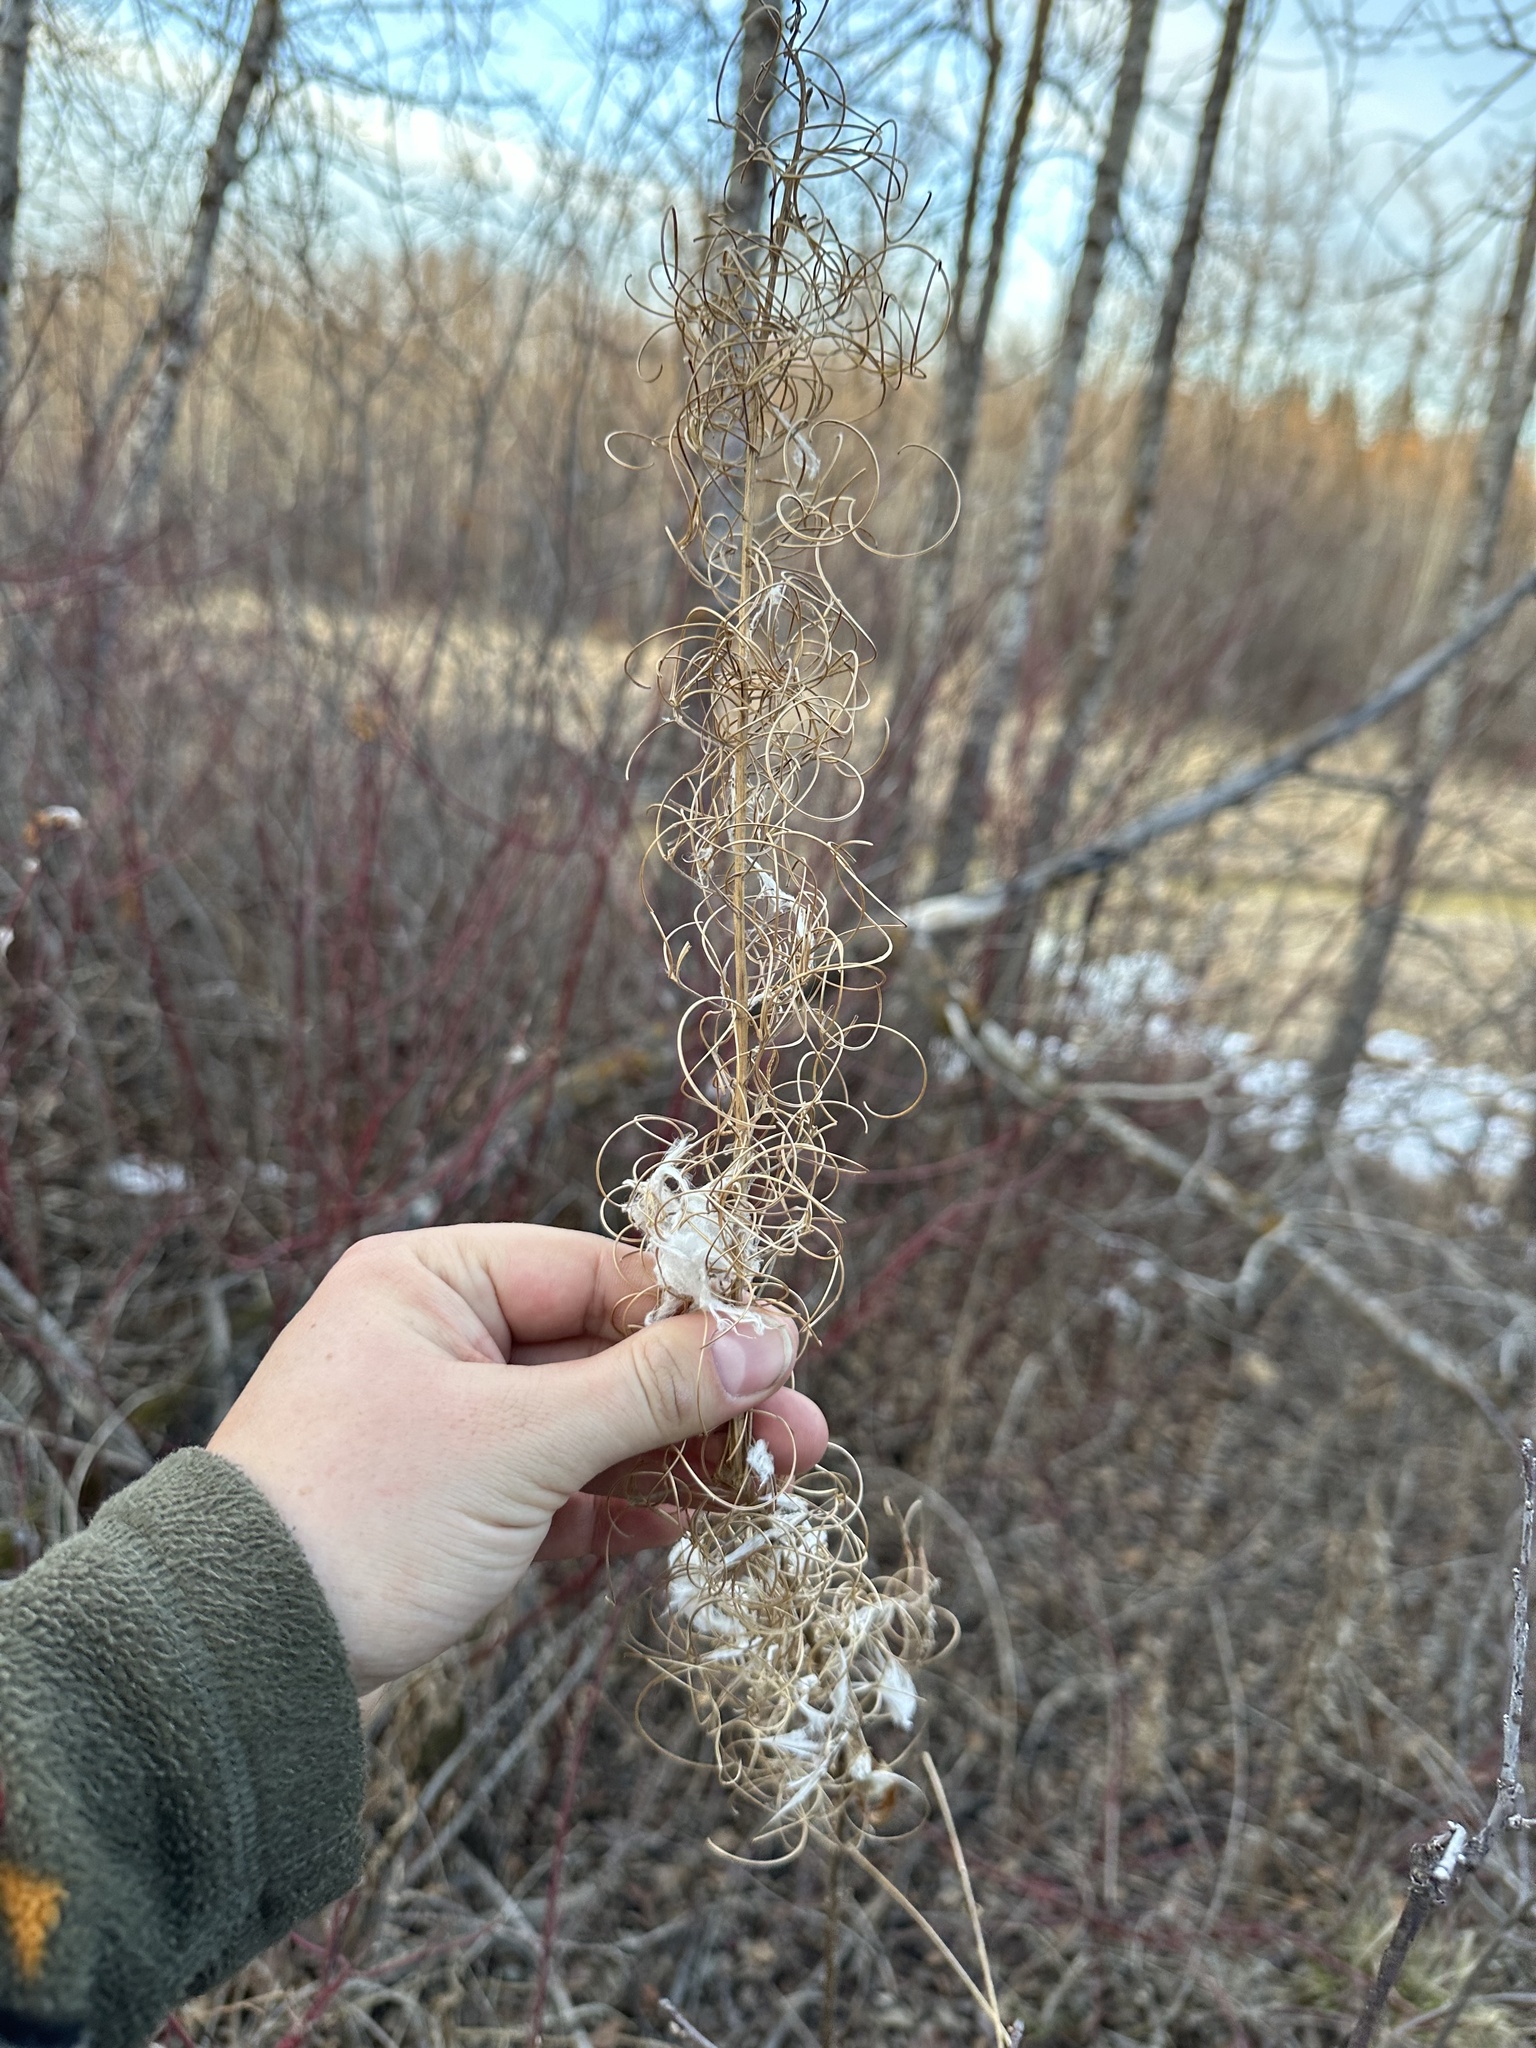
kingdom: Plantae
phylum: Tracheophyta
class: Magnoliopsida
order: Myrtales
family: Onagraceae
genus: Chamaenerion
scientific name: Chamaenerion angustifolium
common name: Fireweed
